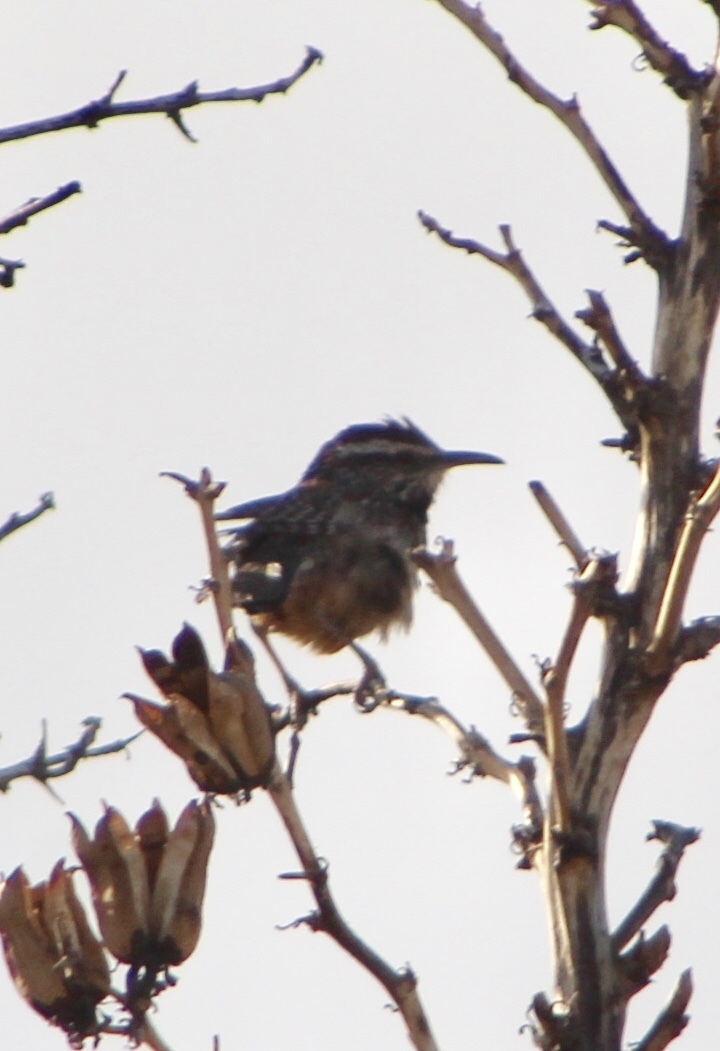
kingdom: Animalia
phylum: Chordata
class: Aves
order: Passeriformes
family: Troglodytidae
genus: Campylorhynchus
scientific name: Campylorhynchus brunneicapillus
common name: Cactus wren
